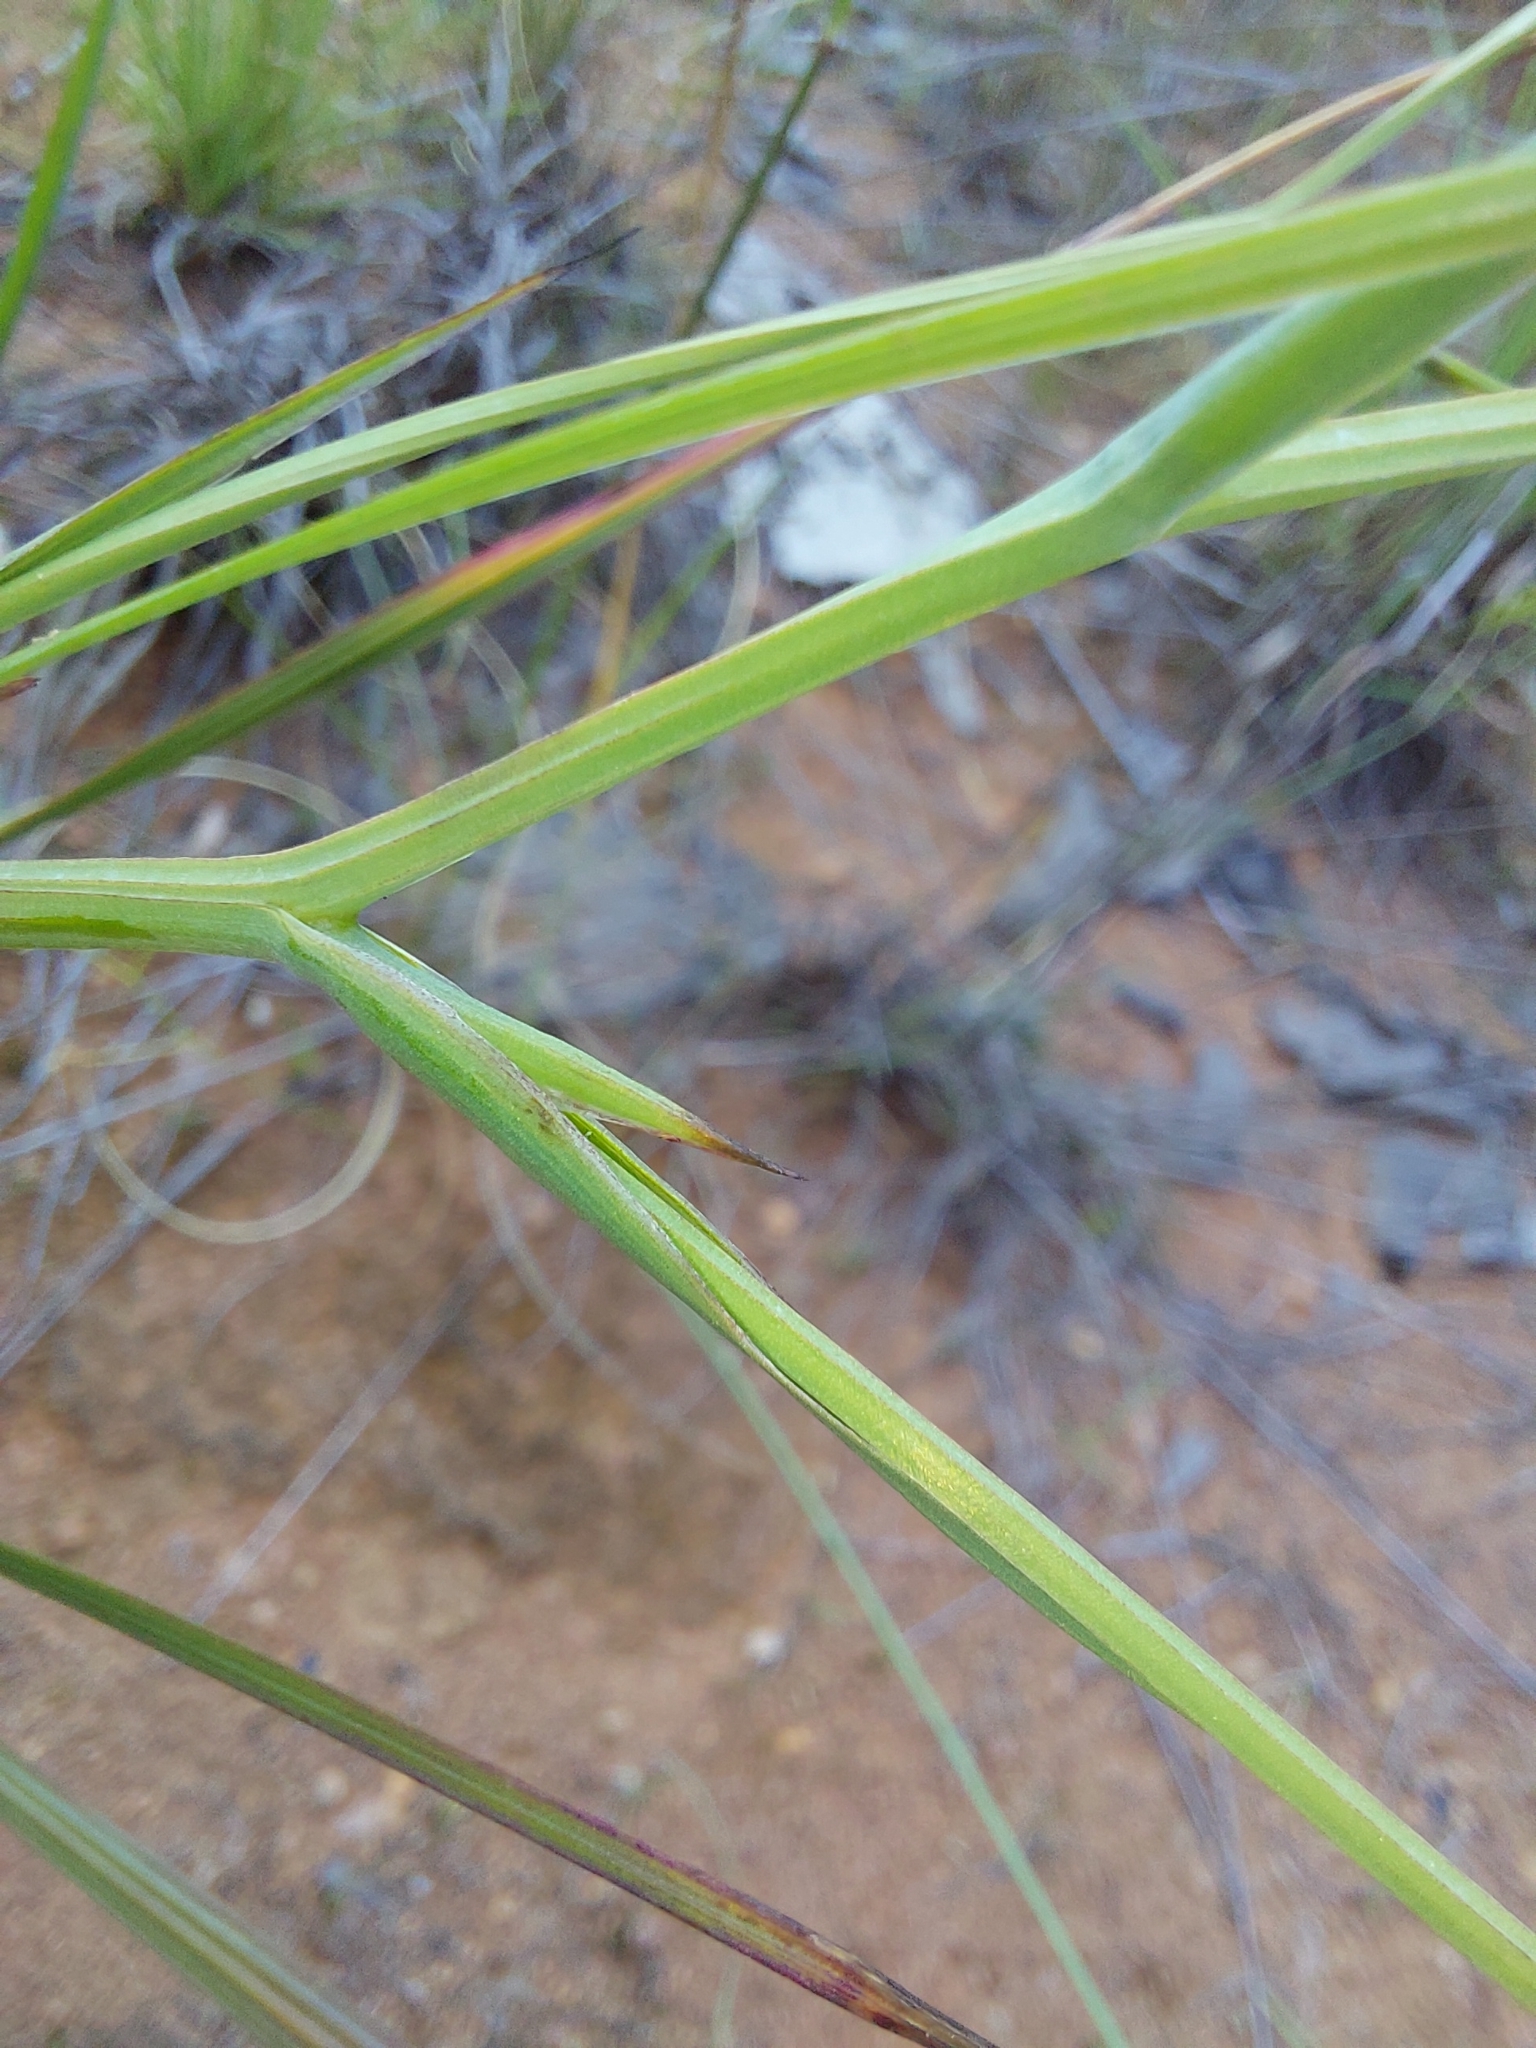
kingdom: Plantae
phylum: Tracheophyta
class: Liliopsida
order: Asparagales
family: Iridaceae
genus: Afrosolen
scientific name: Afrosolen sandersonii
